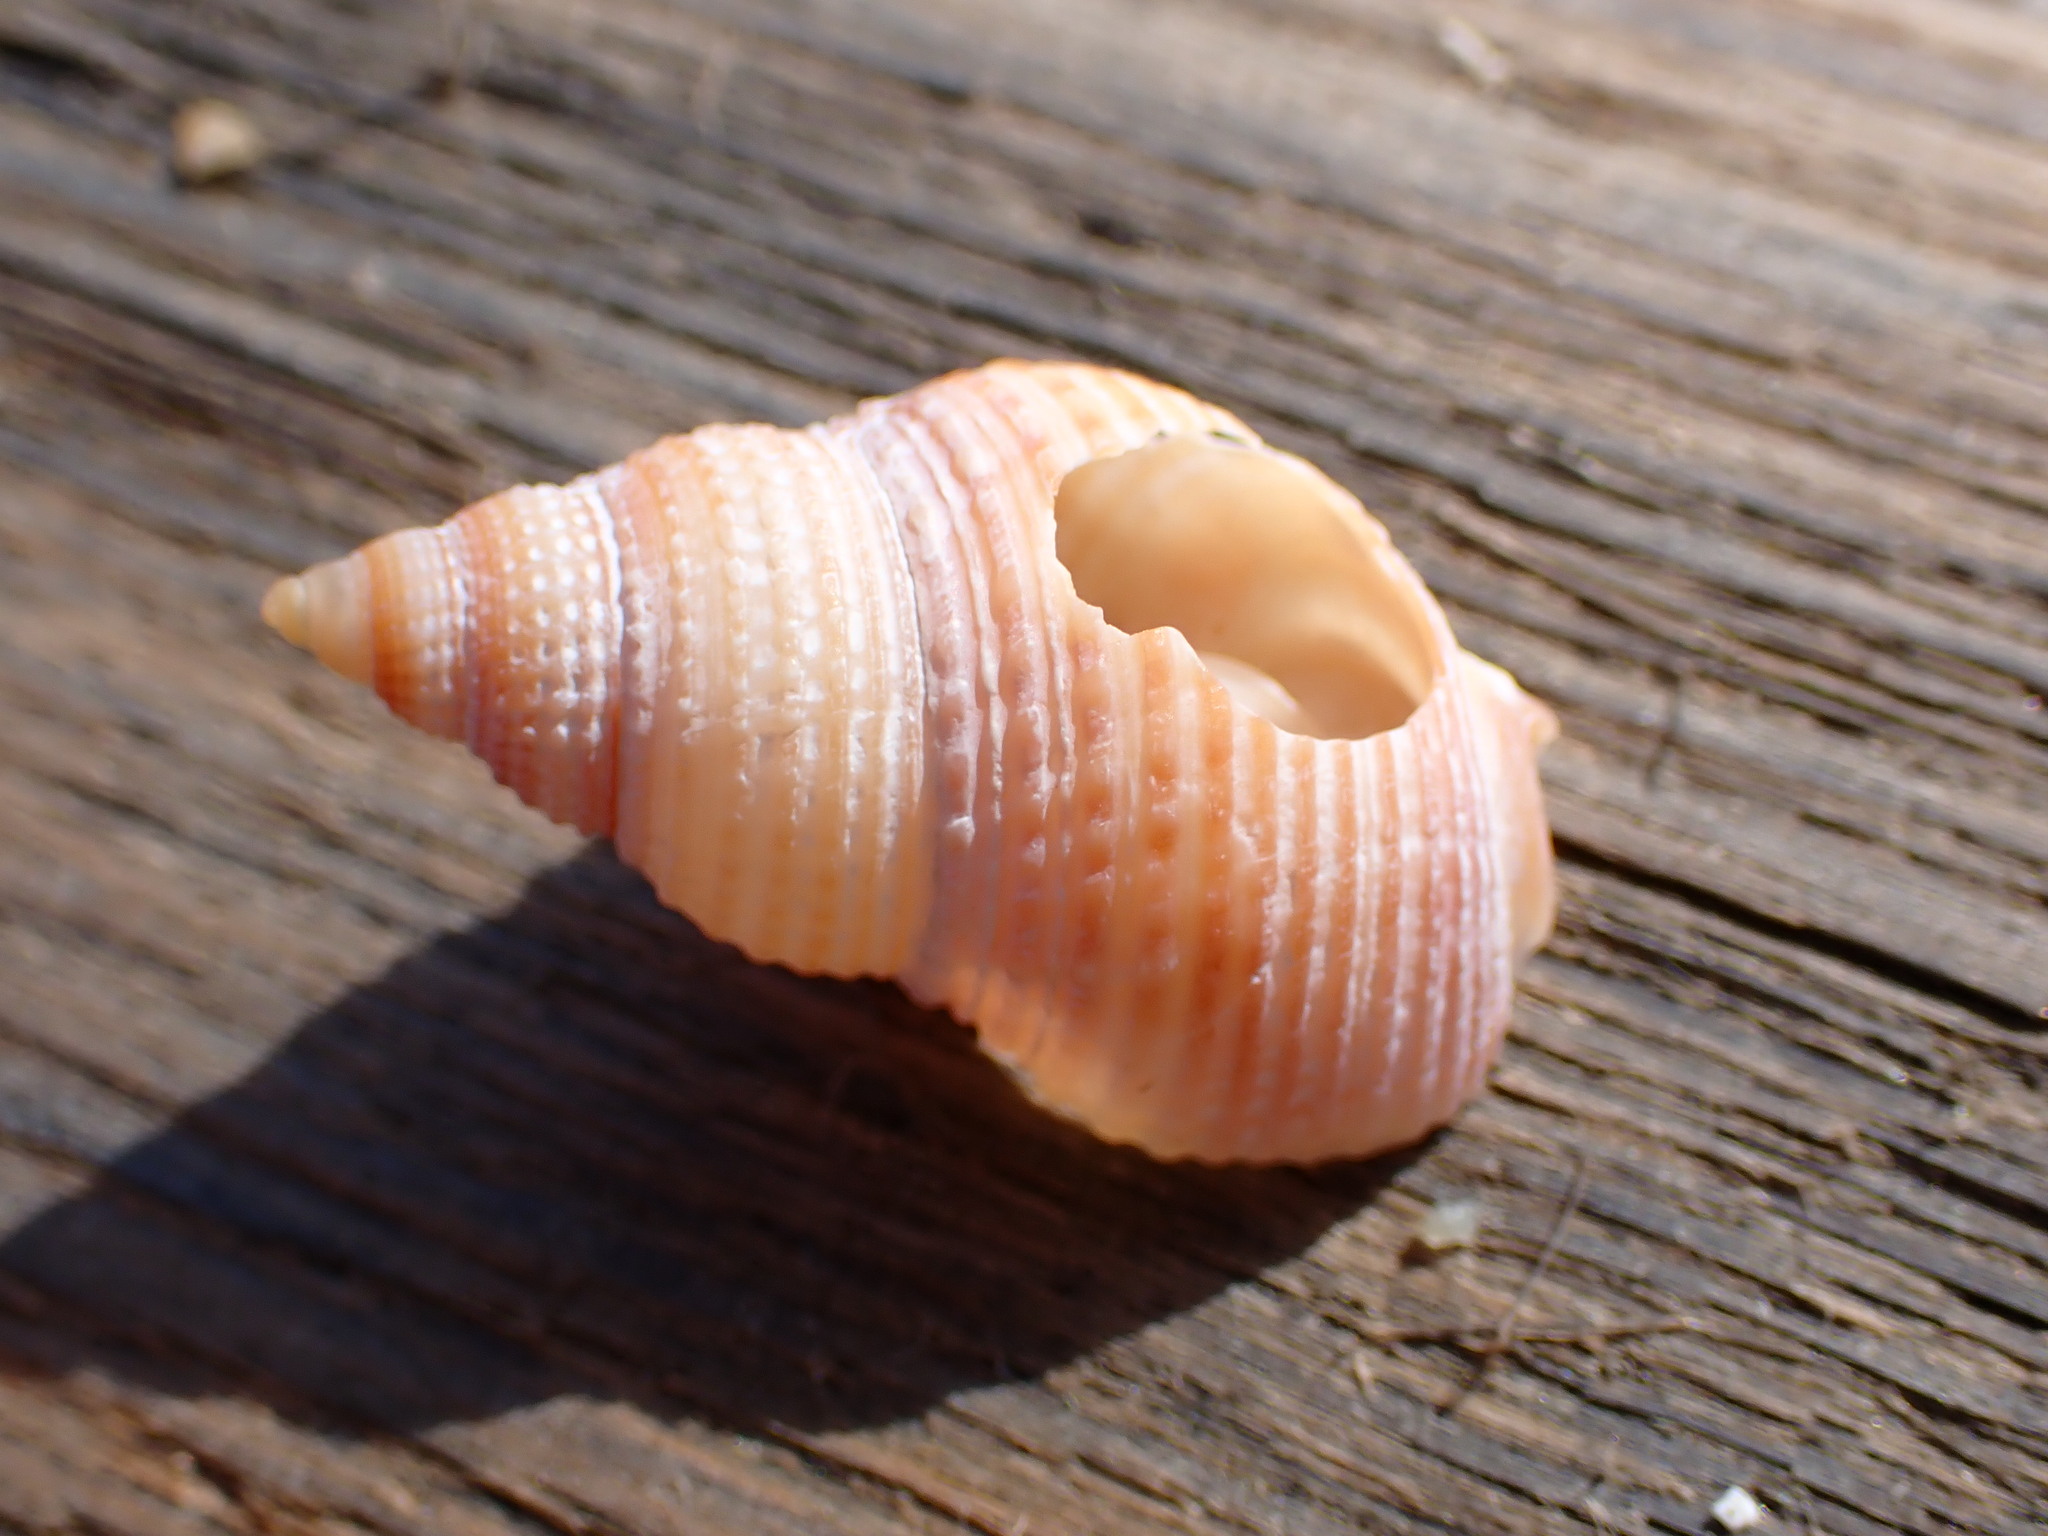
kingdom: Animalia
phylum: Mollusca
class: Gastropoda
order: Neogastropoda
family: Nassariidae
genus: Caesia
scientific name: Caesia fossata
